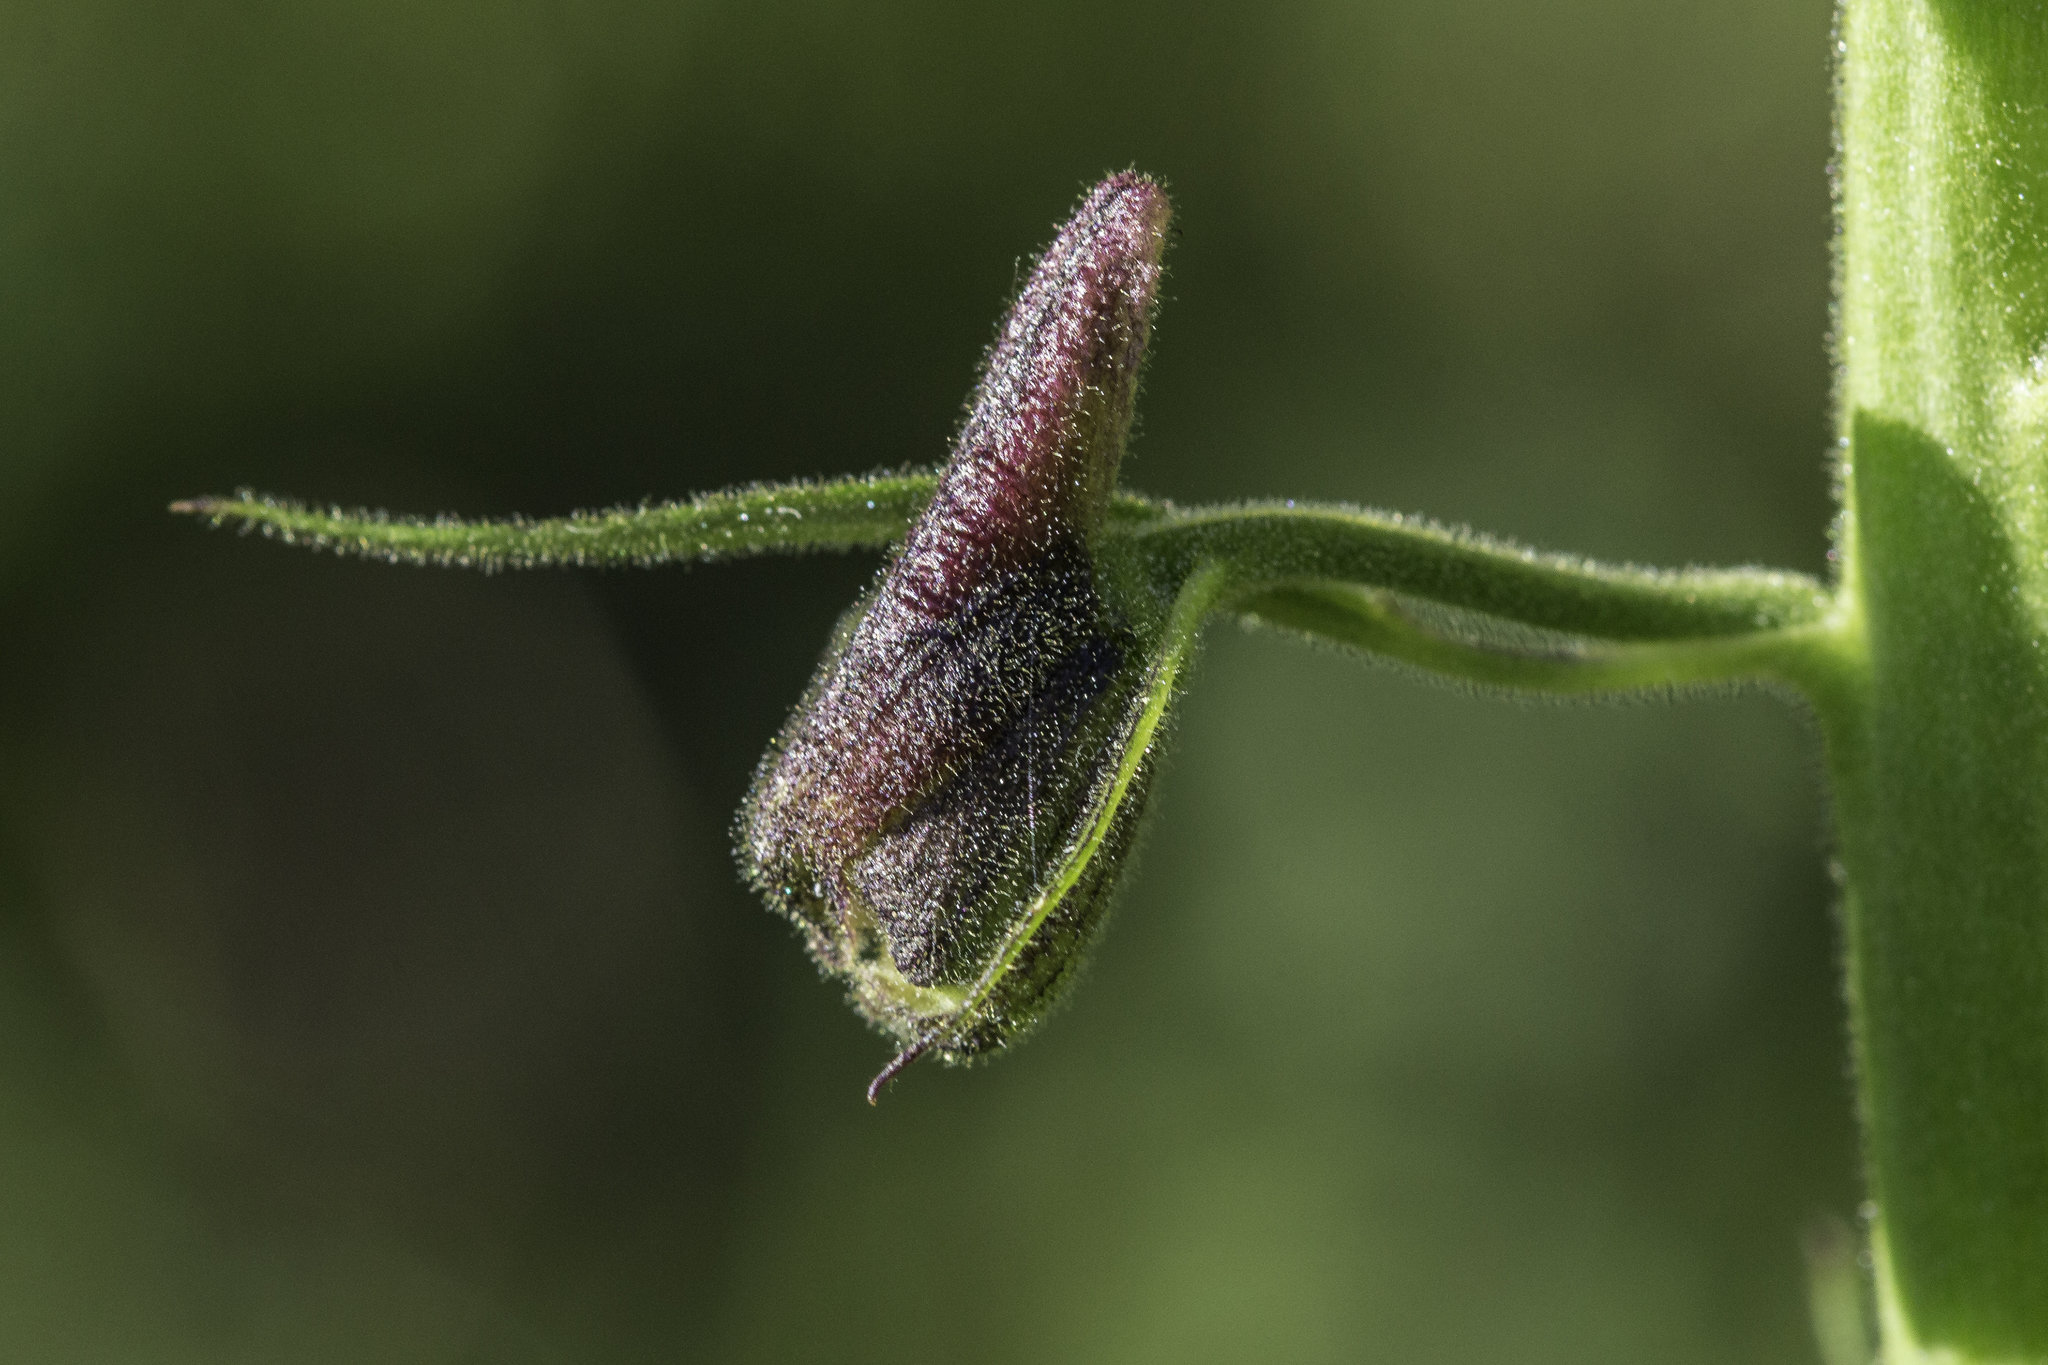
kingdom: Plantae
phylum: Tracheophyta
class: Magnoliopsida
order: Ranunculales
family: Ranunculaceae
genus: Delphinium
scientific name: Delphinium sapellonis
